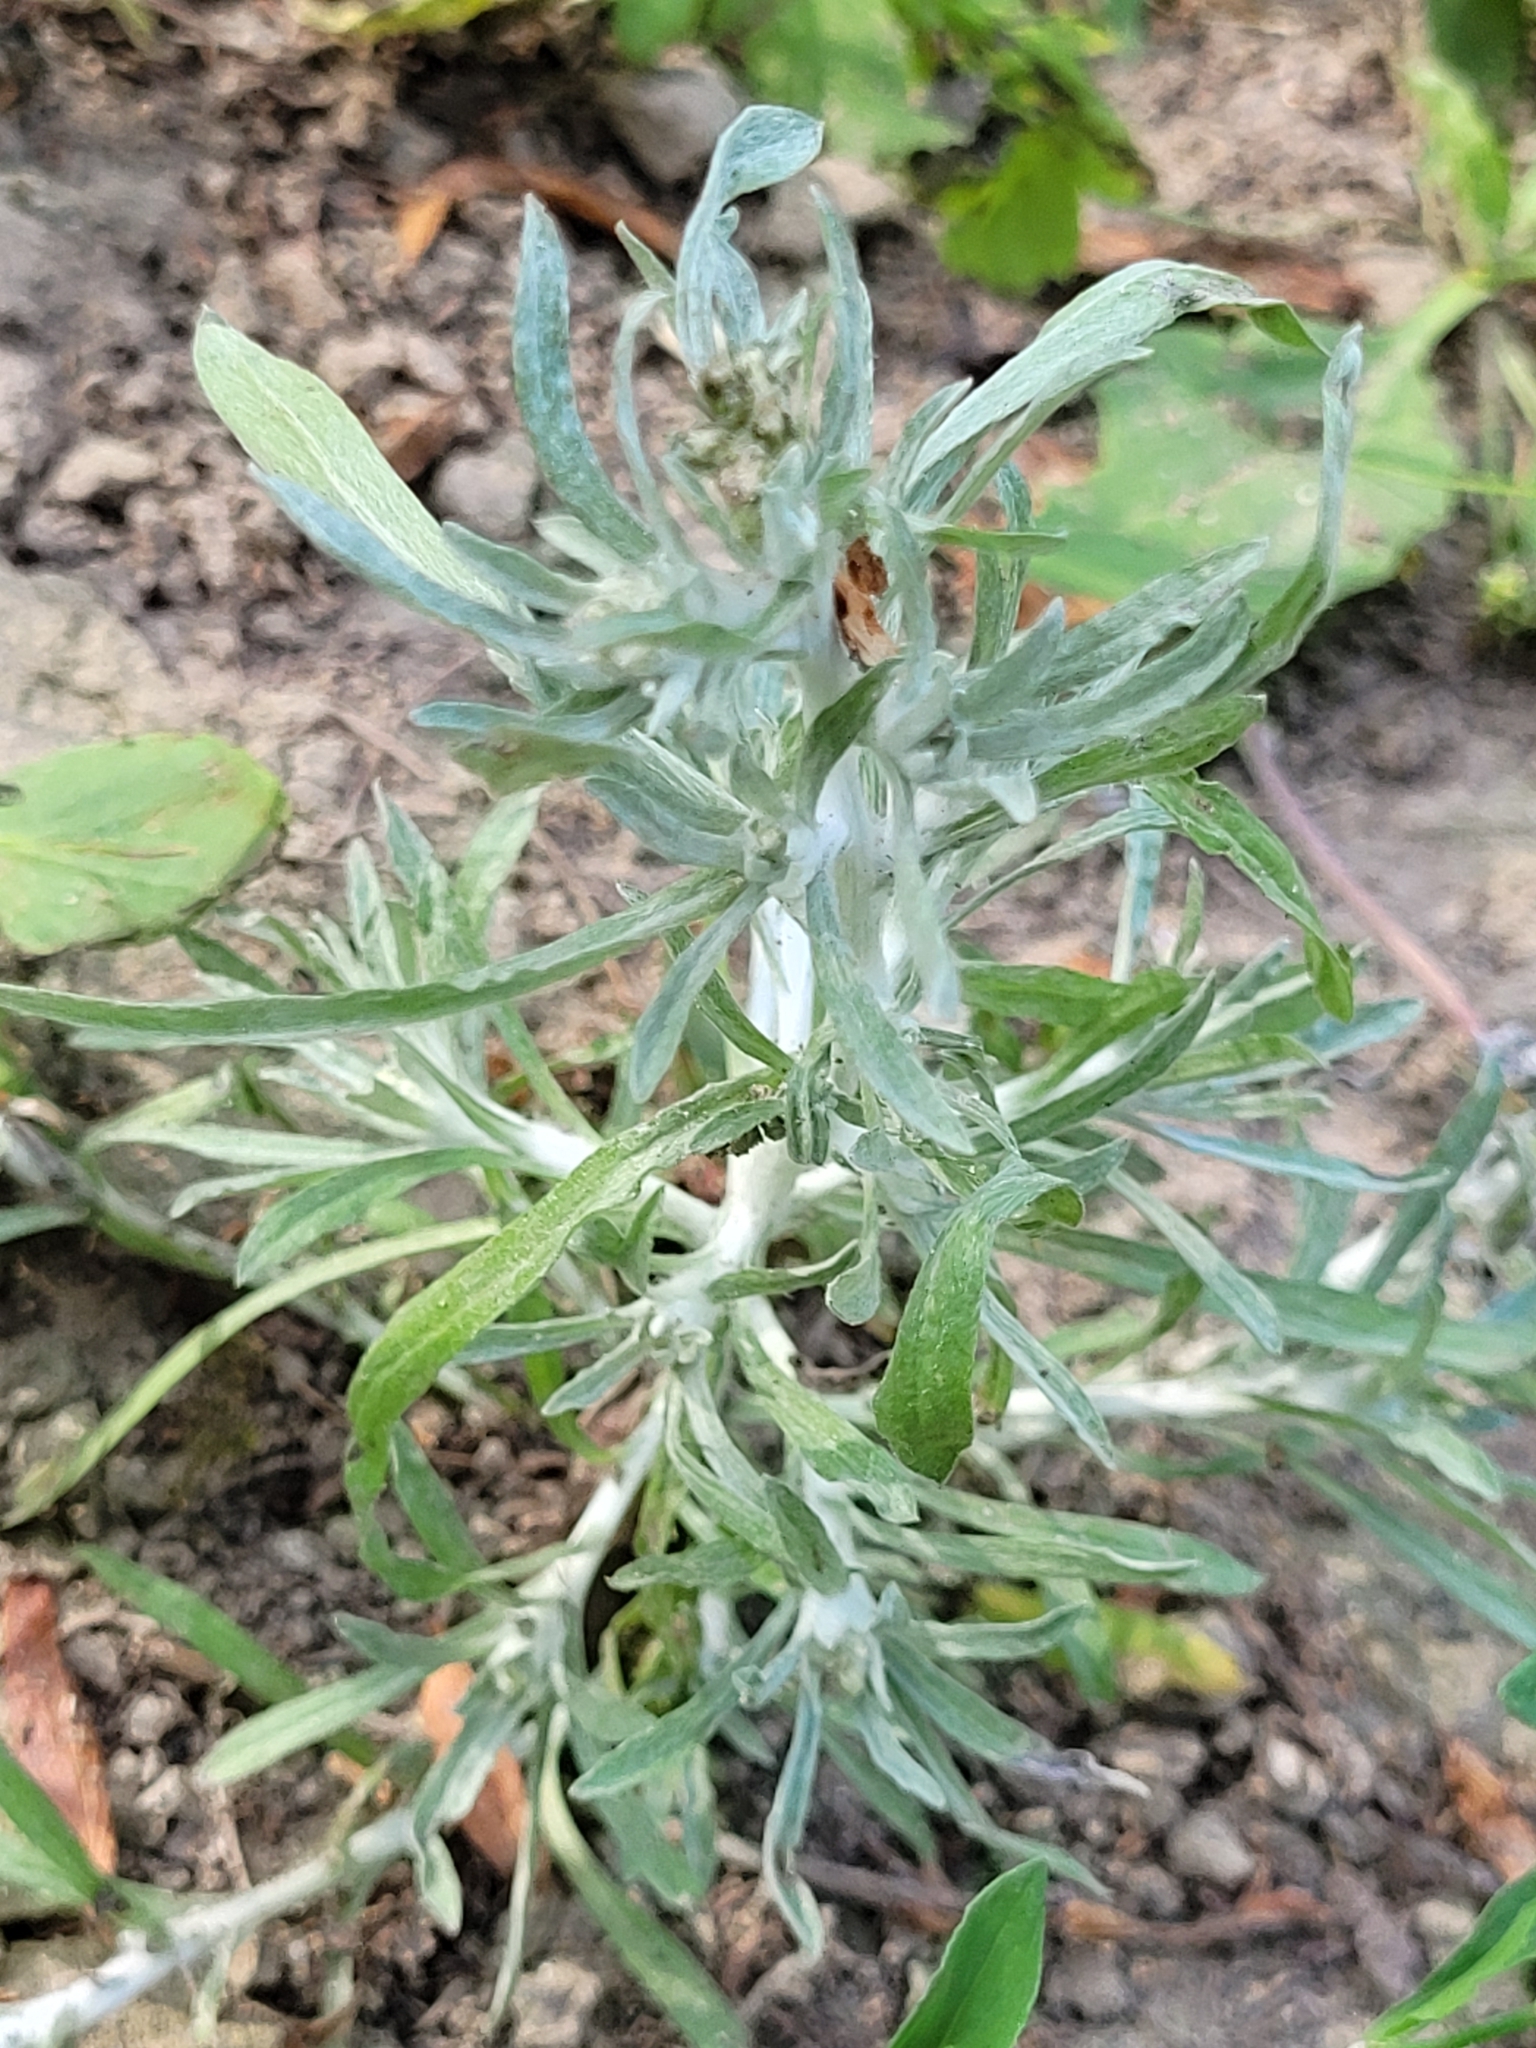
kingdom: Plantae
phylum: Tracheophyta
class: Magnoliopsida
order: Asterales
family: Asteraceae
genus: Gnaphalium
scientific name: Gnaphalium uliginosum
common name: Marsh cudweed
